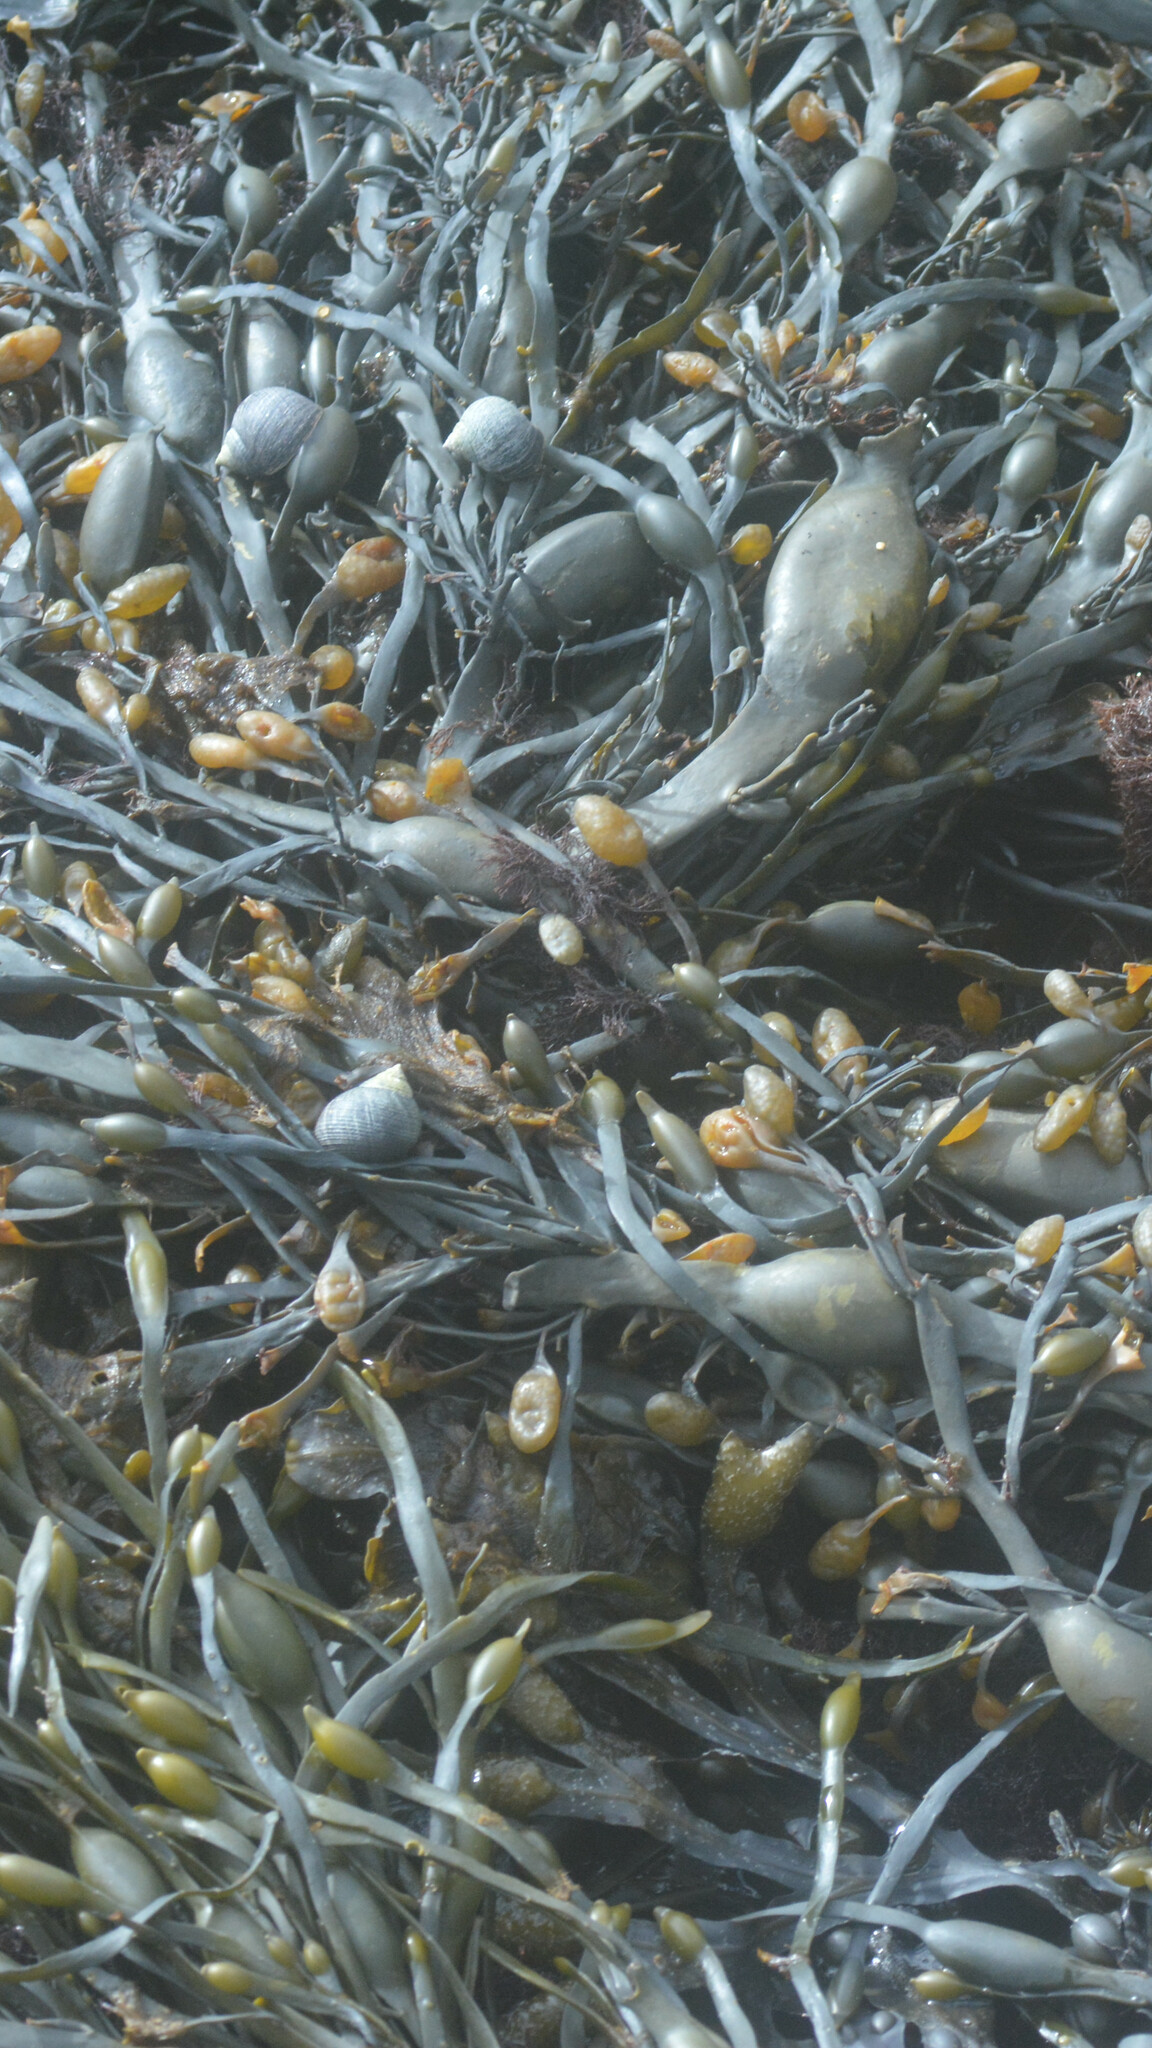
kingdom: Chromista
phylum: Ochrophyta
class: Phaeophyceae
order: Fucales
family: Fucaceae
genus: Ascophyllum
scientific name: Ascophyllum nodosum
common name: Knotted wrack
